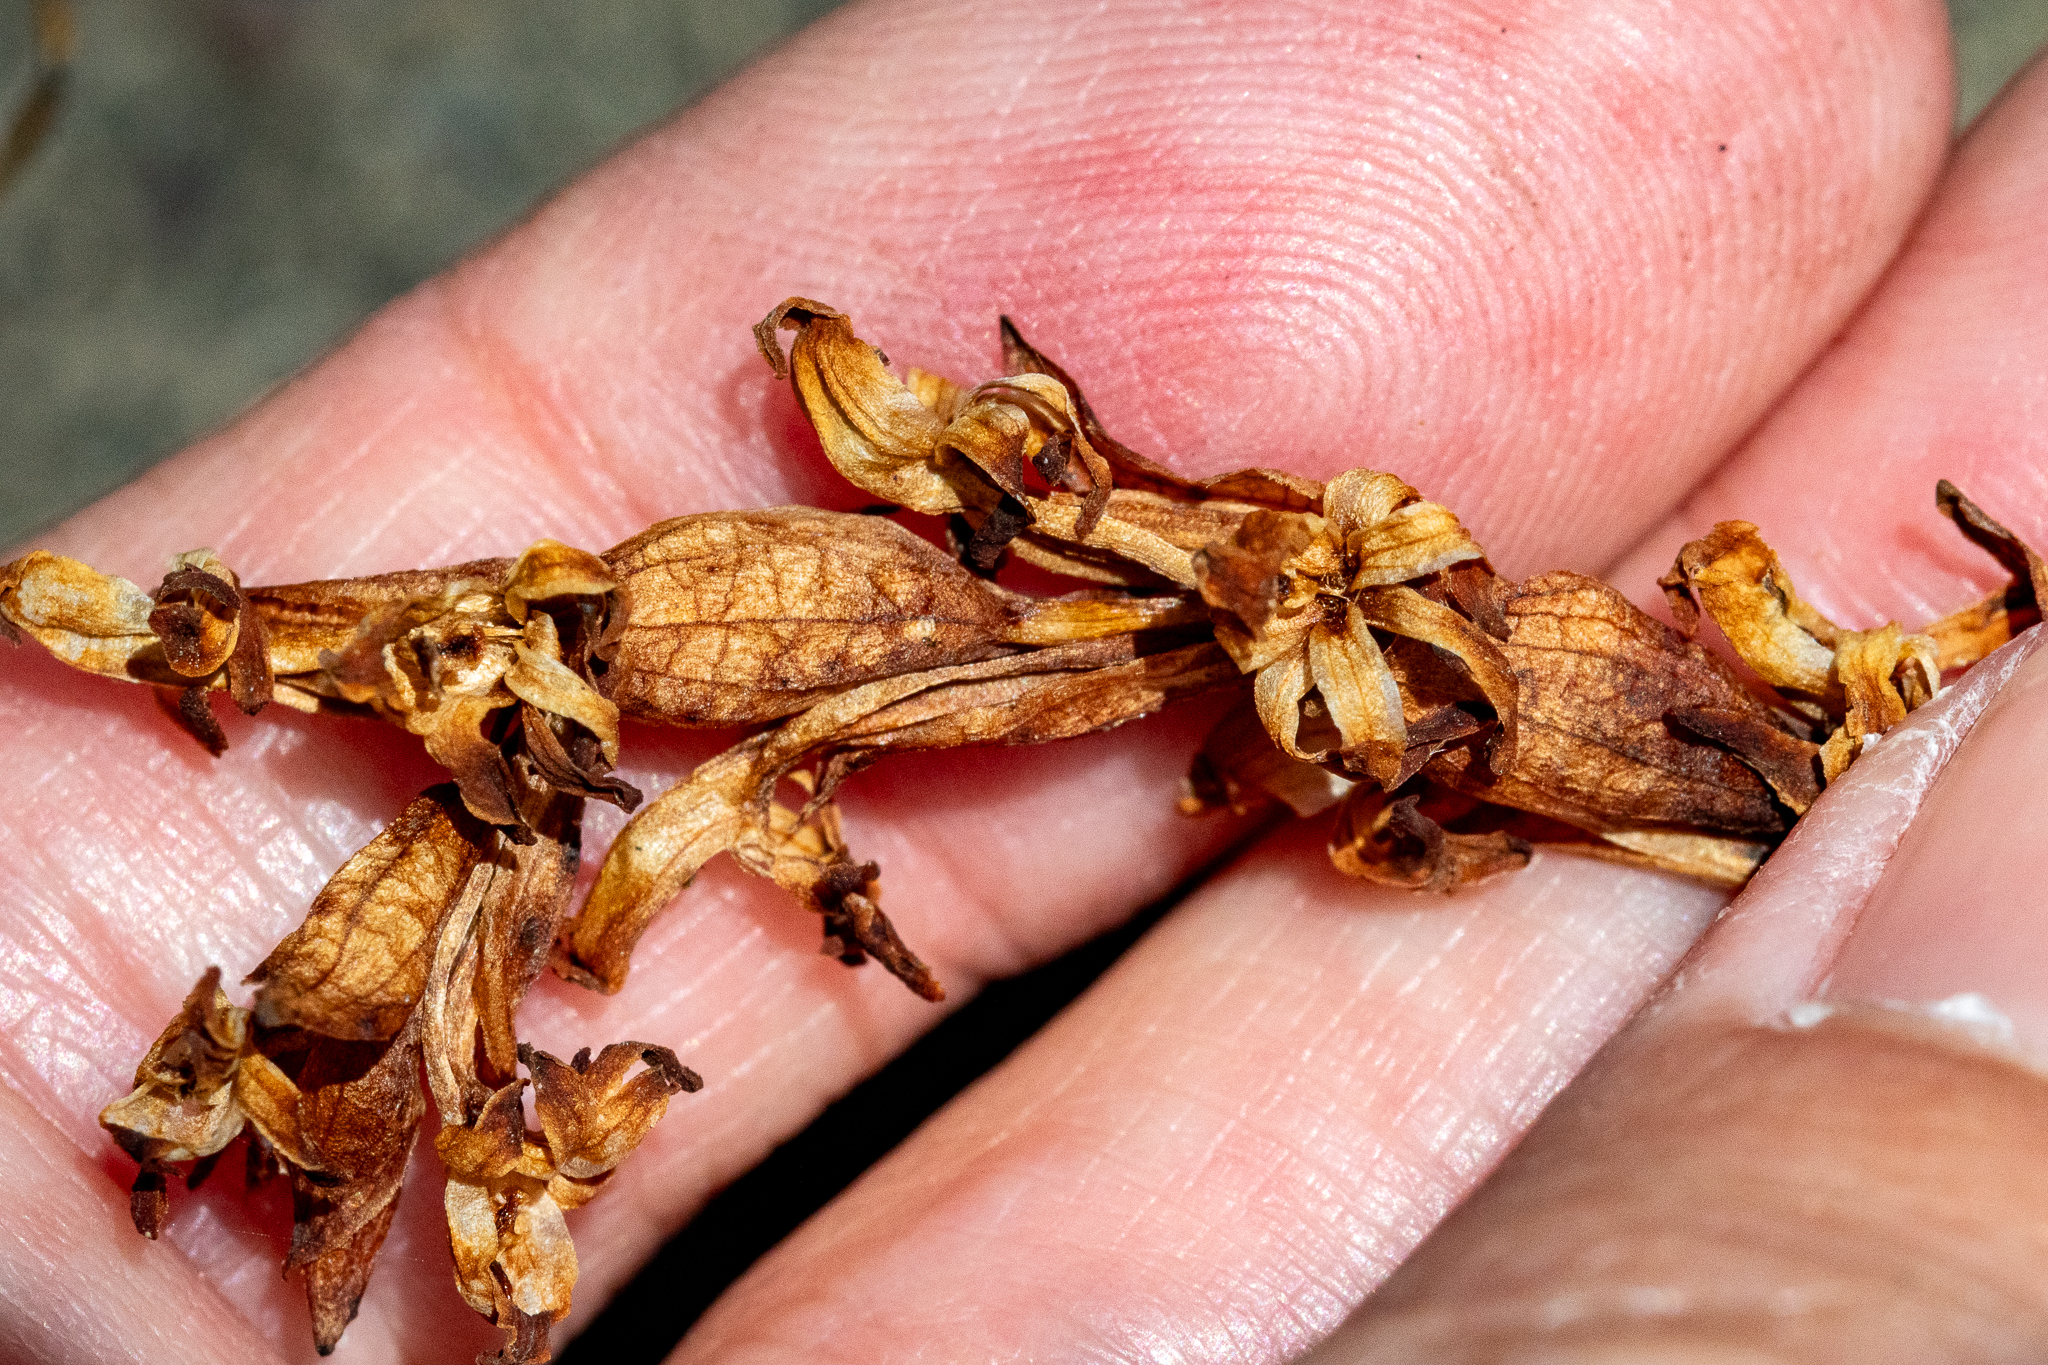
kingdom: Plantae
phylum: Tracheophyta
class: Liliopsida
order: Asparagales
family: Orchidaceae
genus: Satyrium
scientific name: Satyrium stenopetalum
